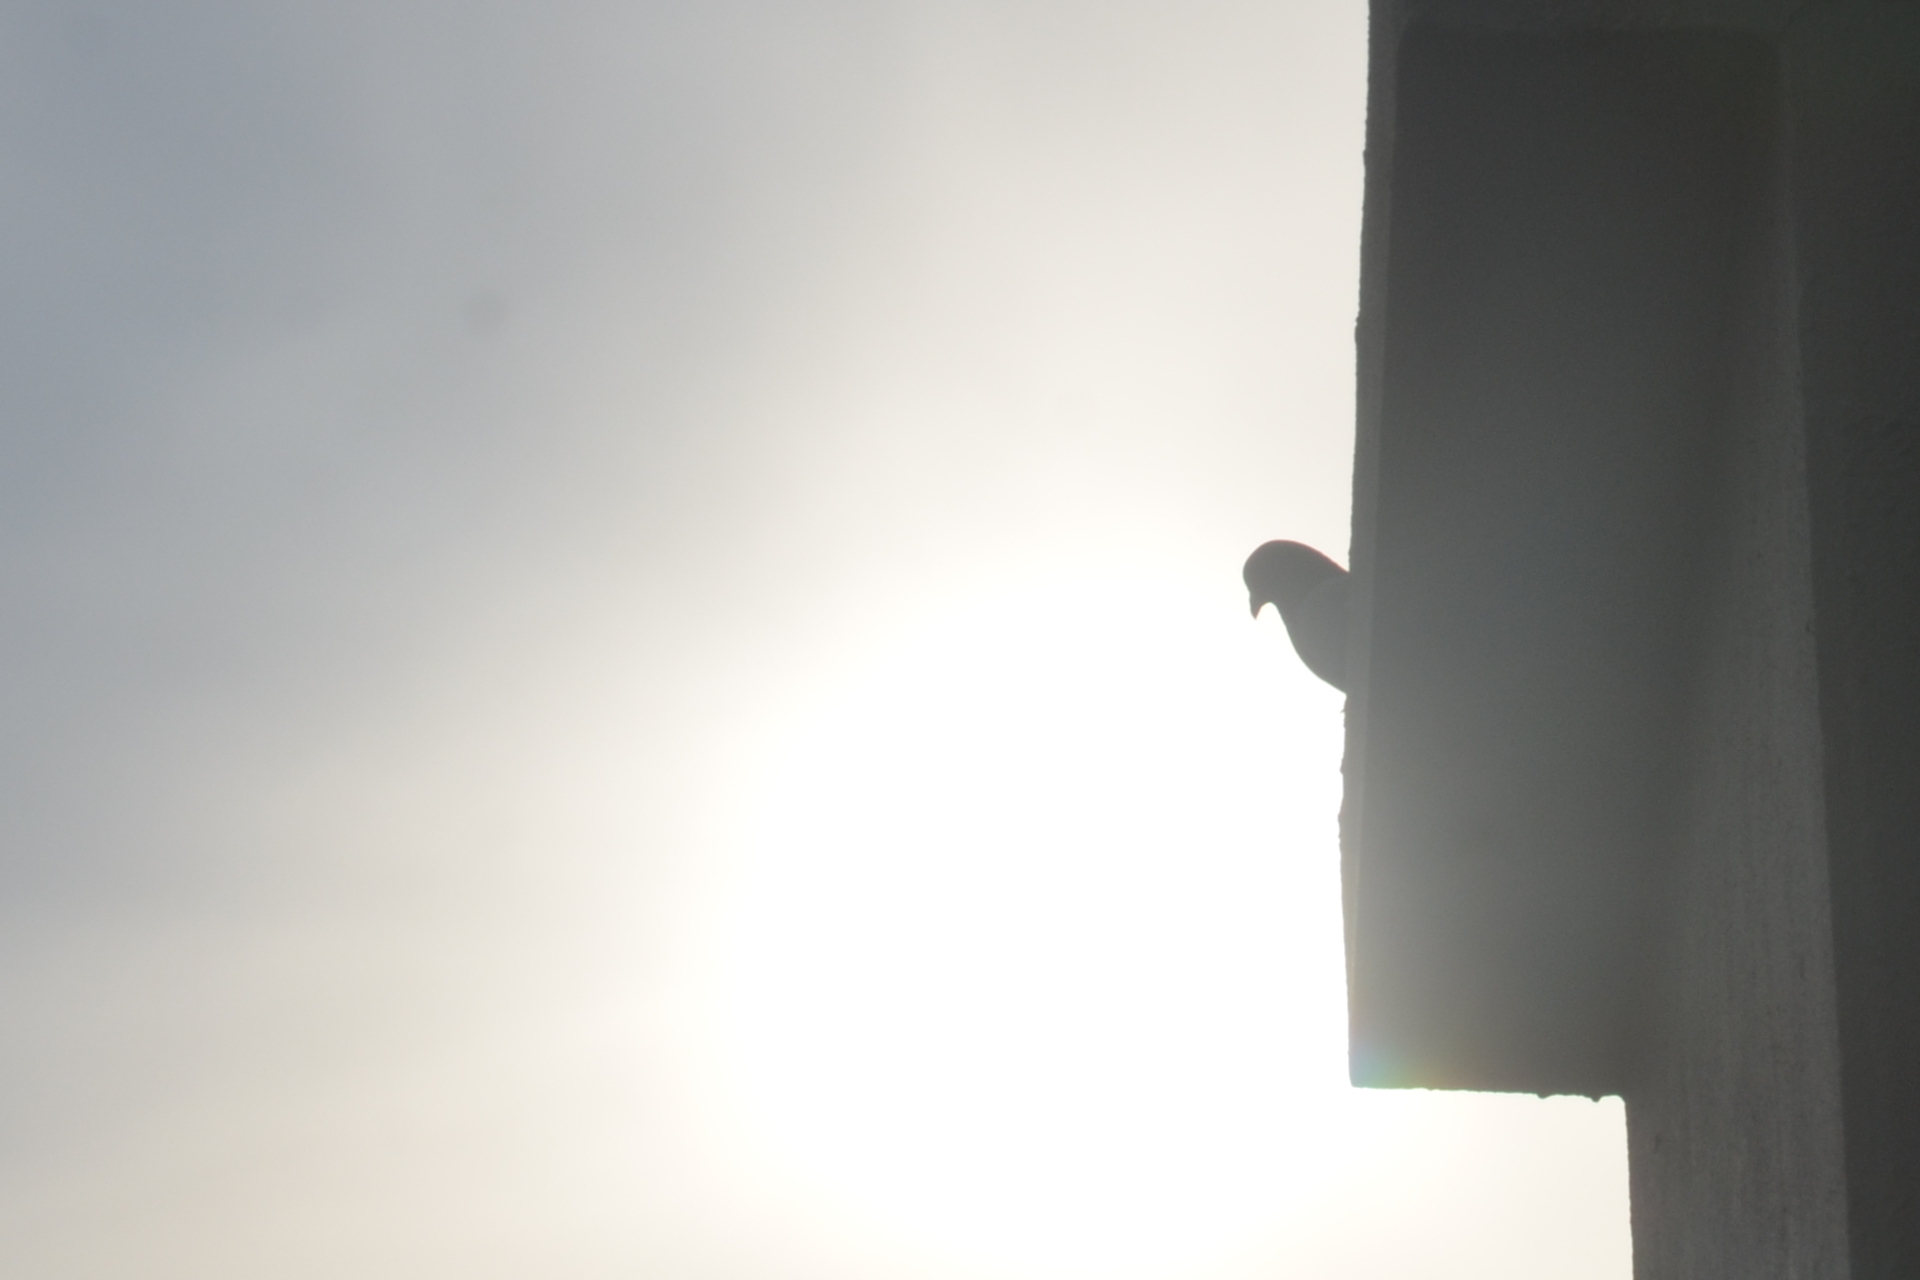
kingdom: Animalia
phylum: Chordata
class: Aves
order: Columbiformes
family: Columbidae
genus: Columba
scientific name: Columba livia
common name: Rock pigeon
